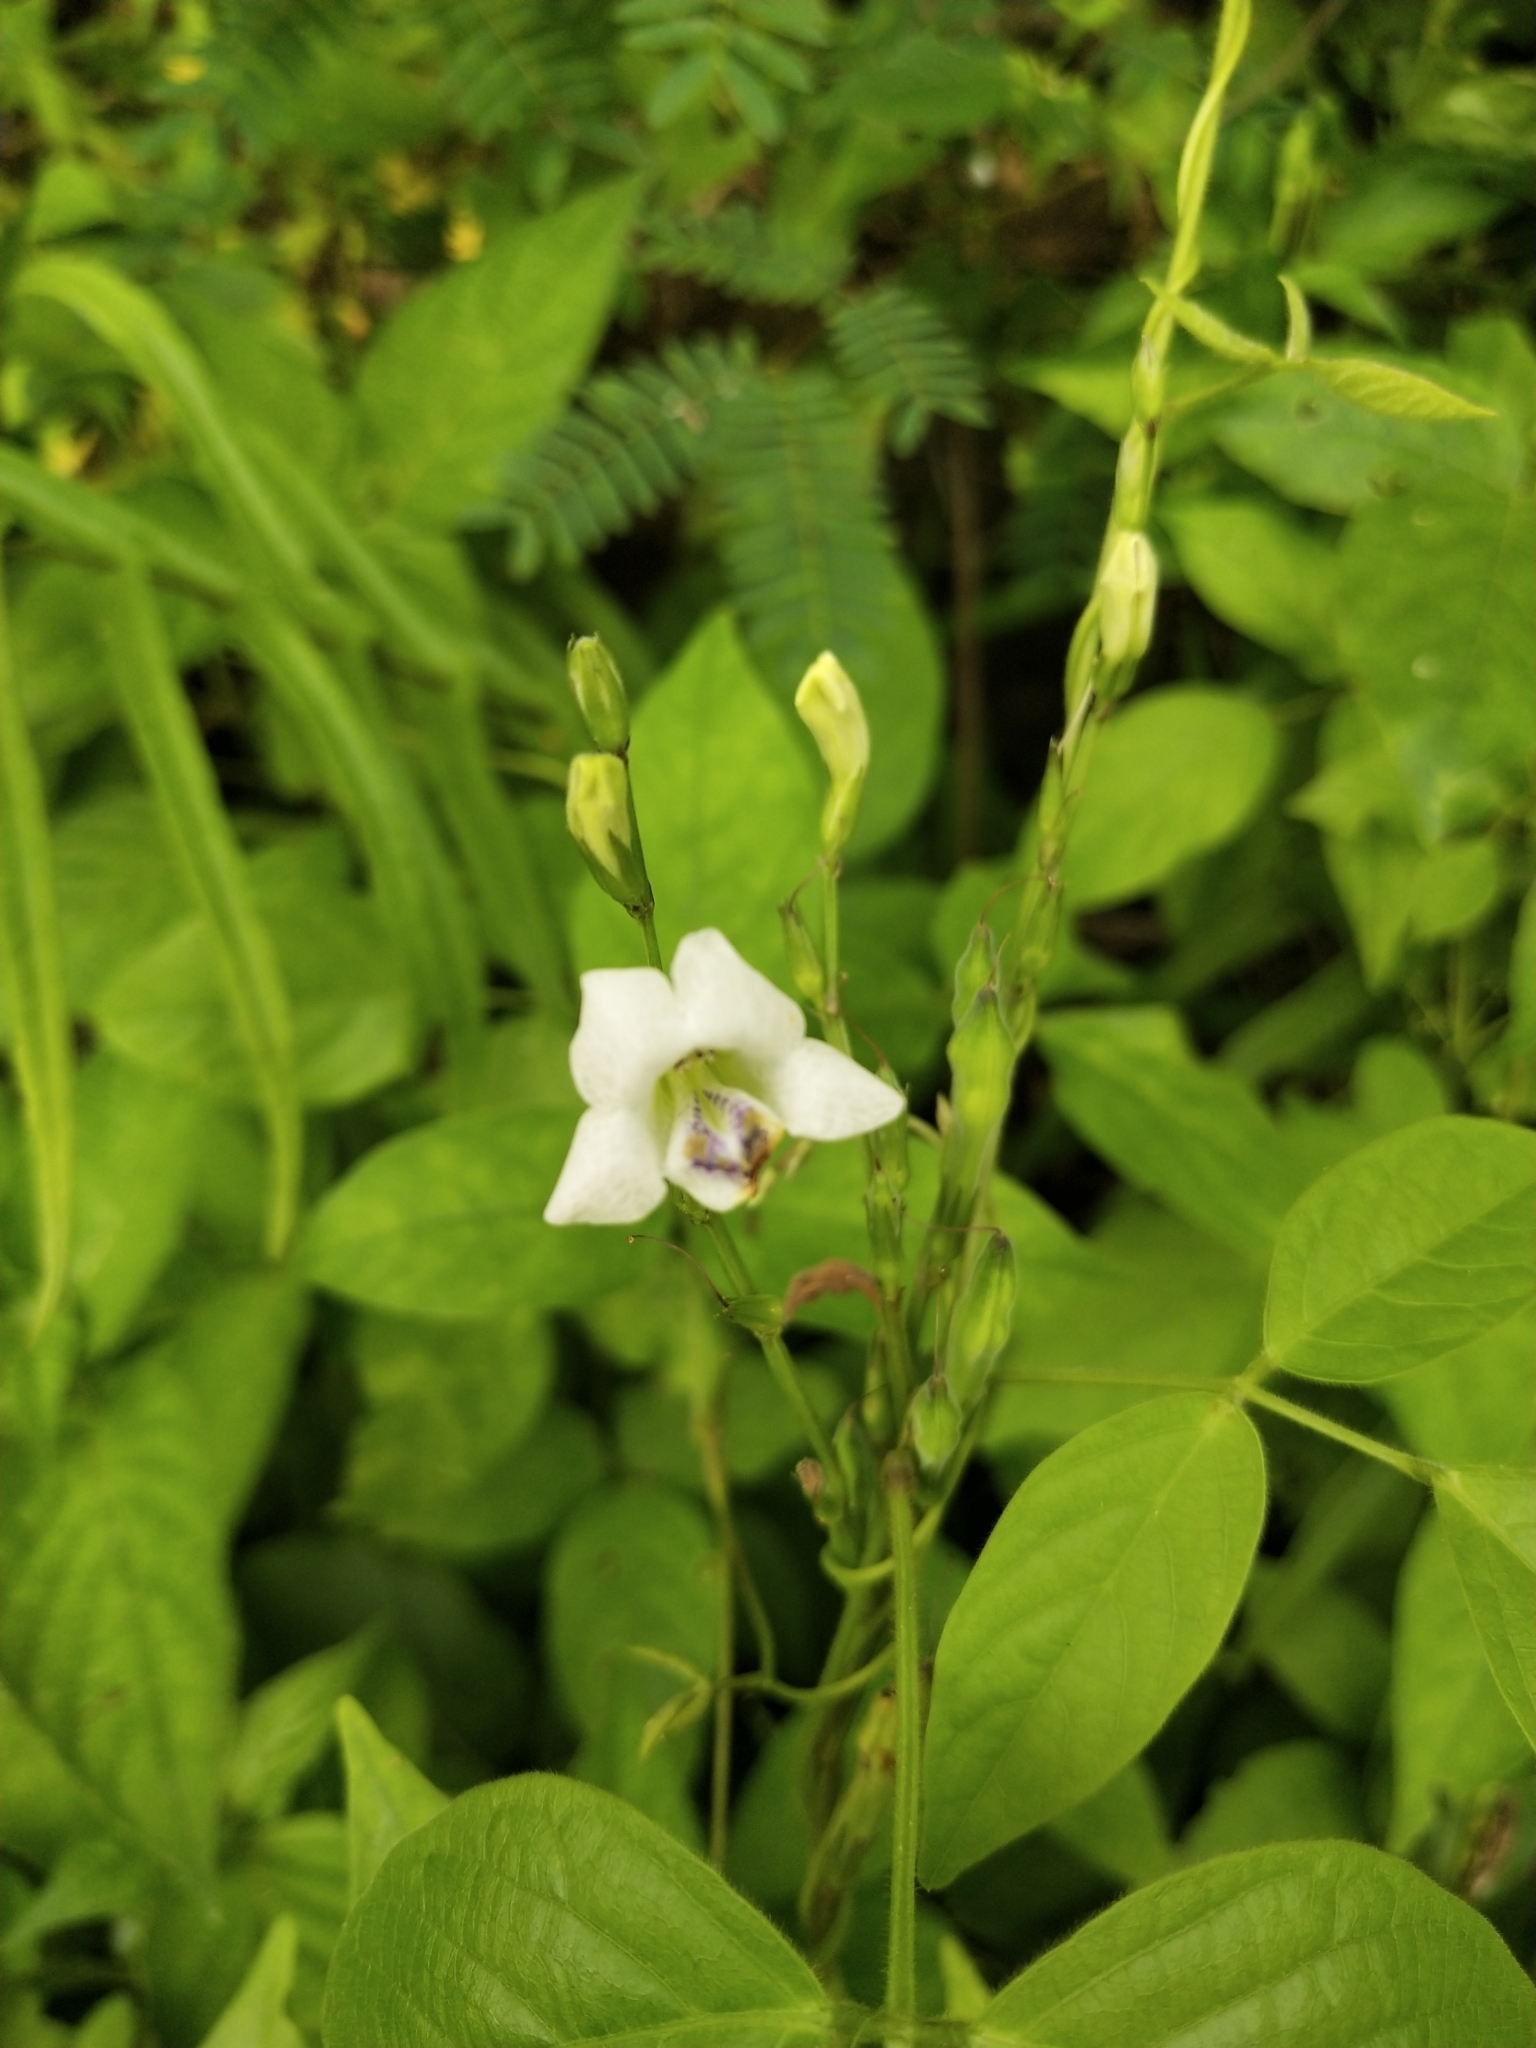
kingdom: Plantae
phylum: Tracheophyta
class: Magnoliopsida
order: Lamiales
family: Acanthaceae
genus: Asystasia
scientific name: Asystasia intrusa
